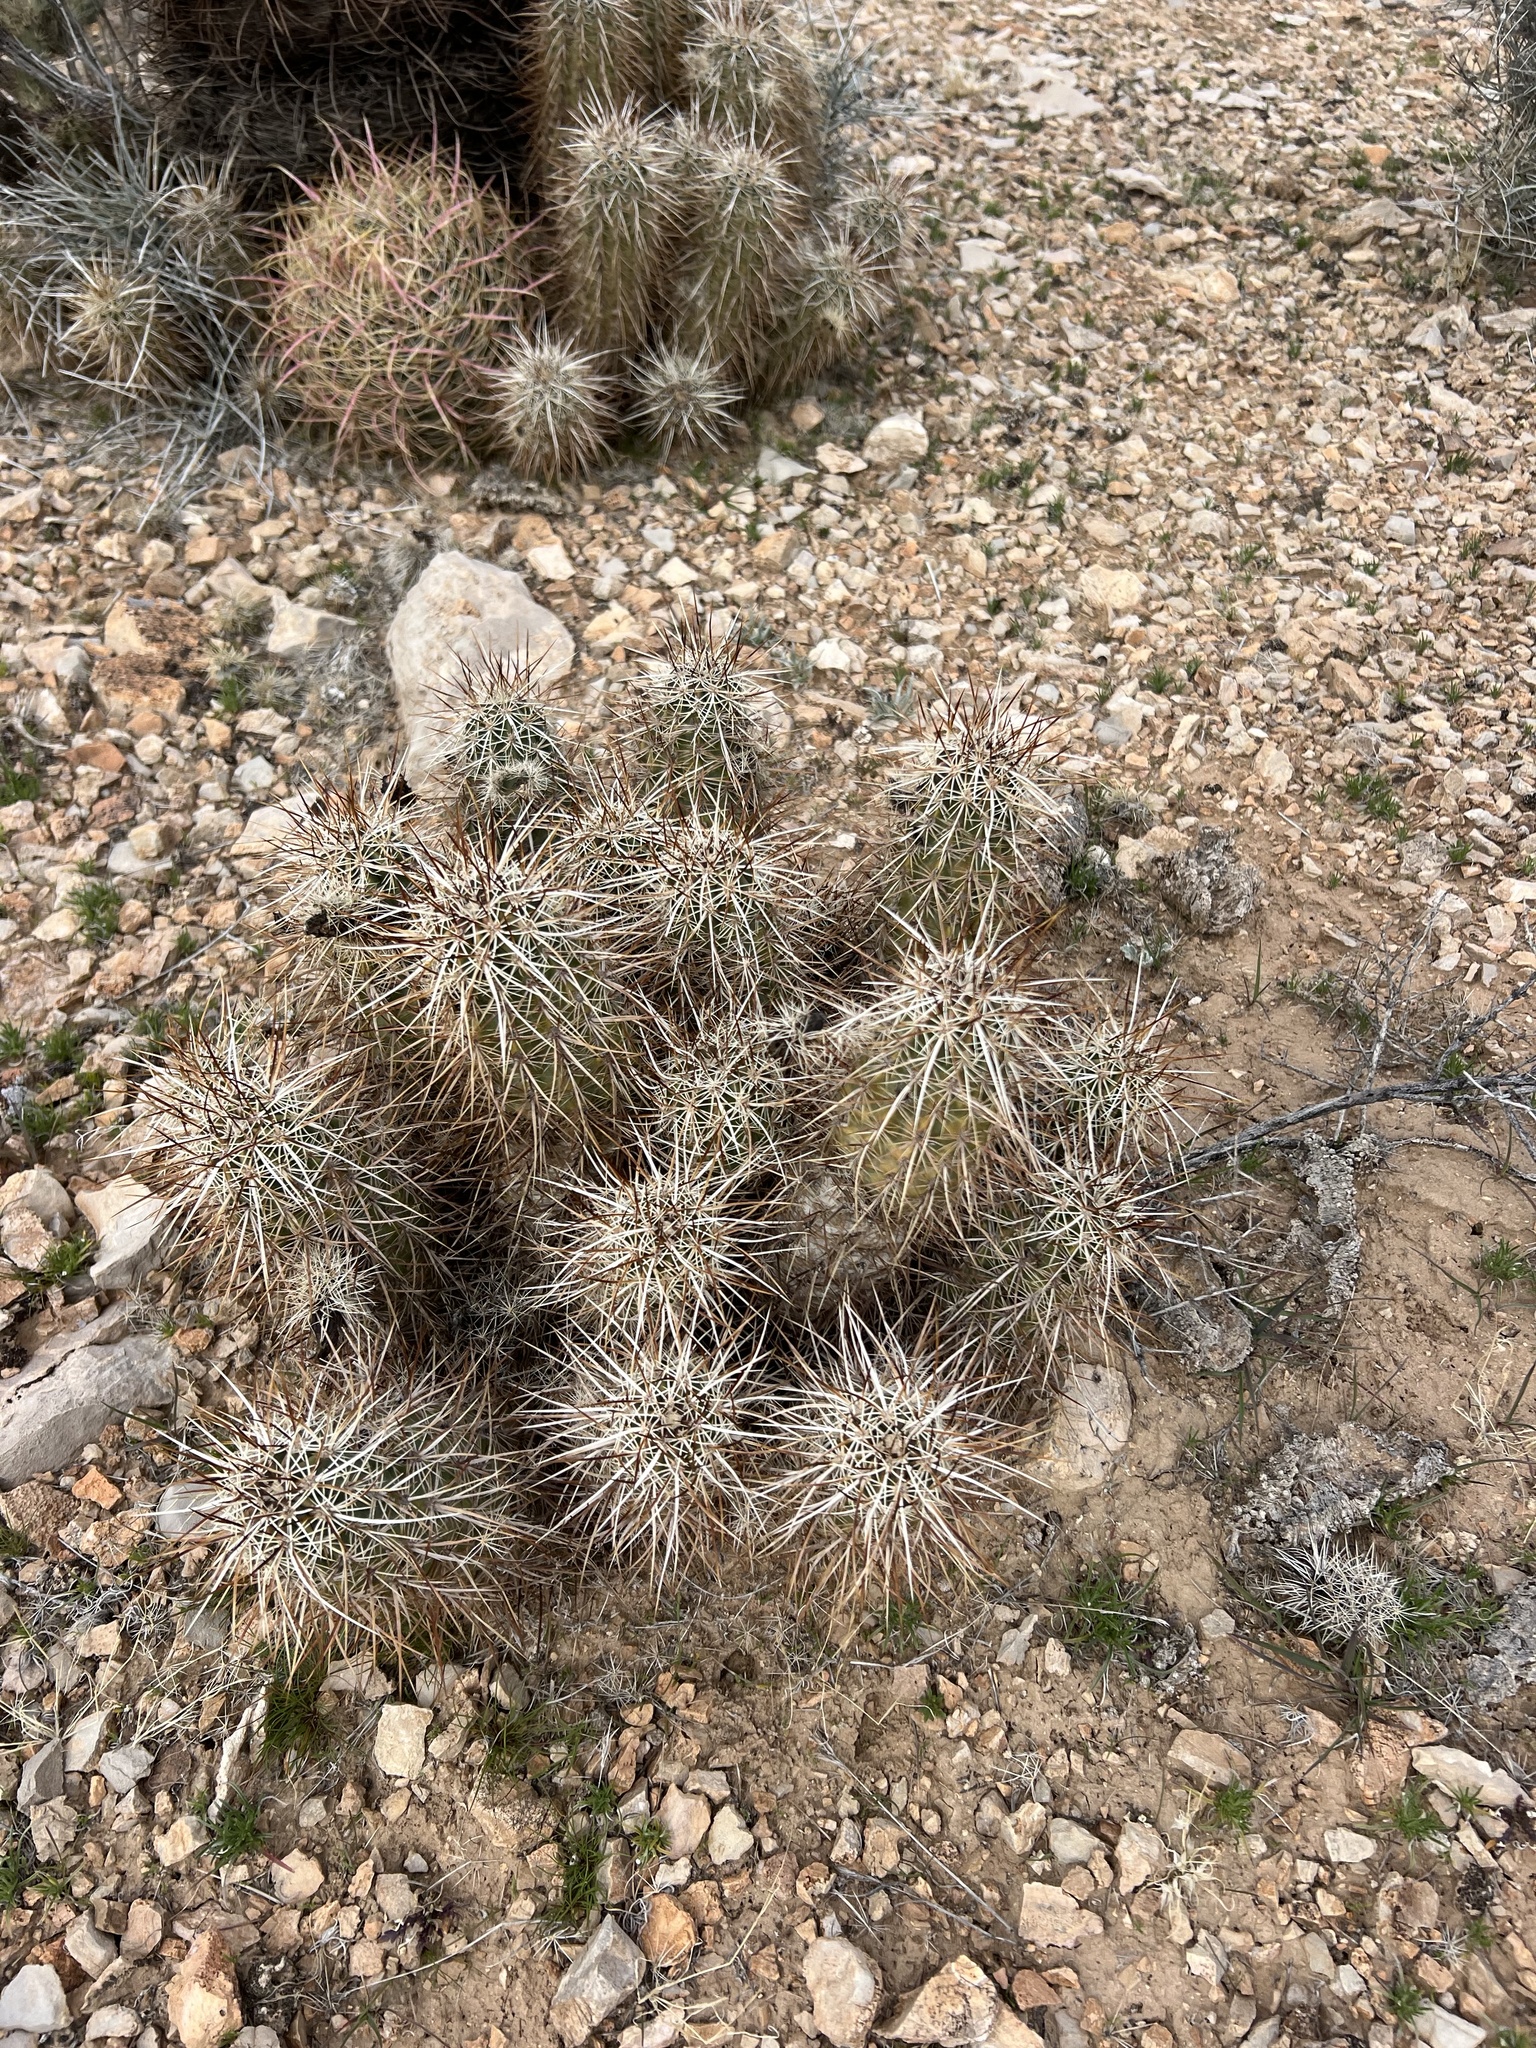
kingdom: Plantae
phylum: Tracheophyta
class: Magnoliopsida
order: Caryophyllales
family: Cactaceae
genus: Echinocereus
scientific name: Echinocereus engelmannii
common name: Engelmann's hedgehog cactus
